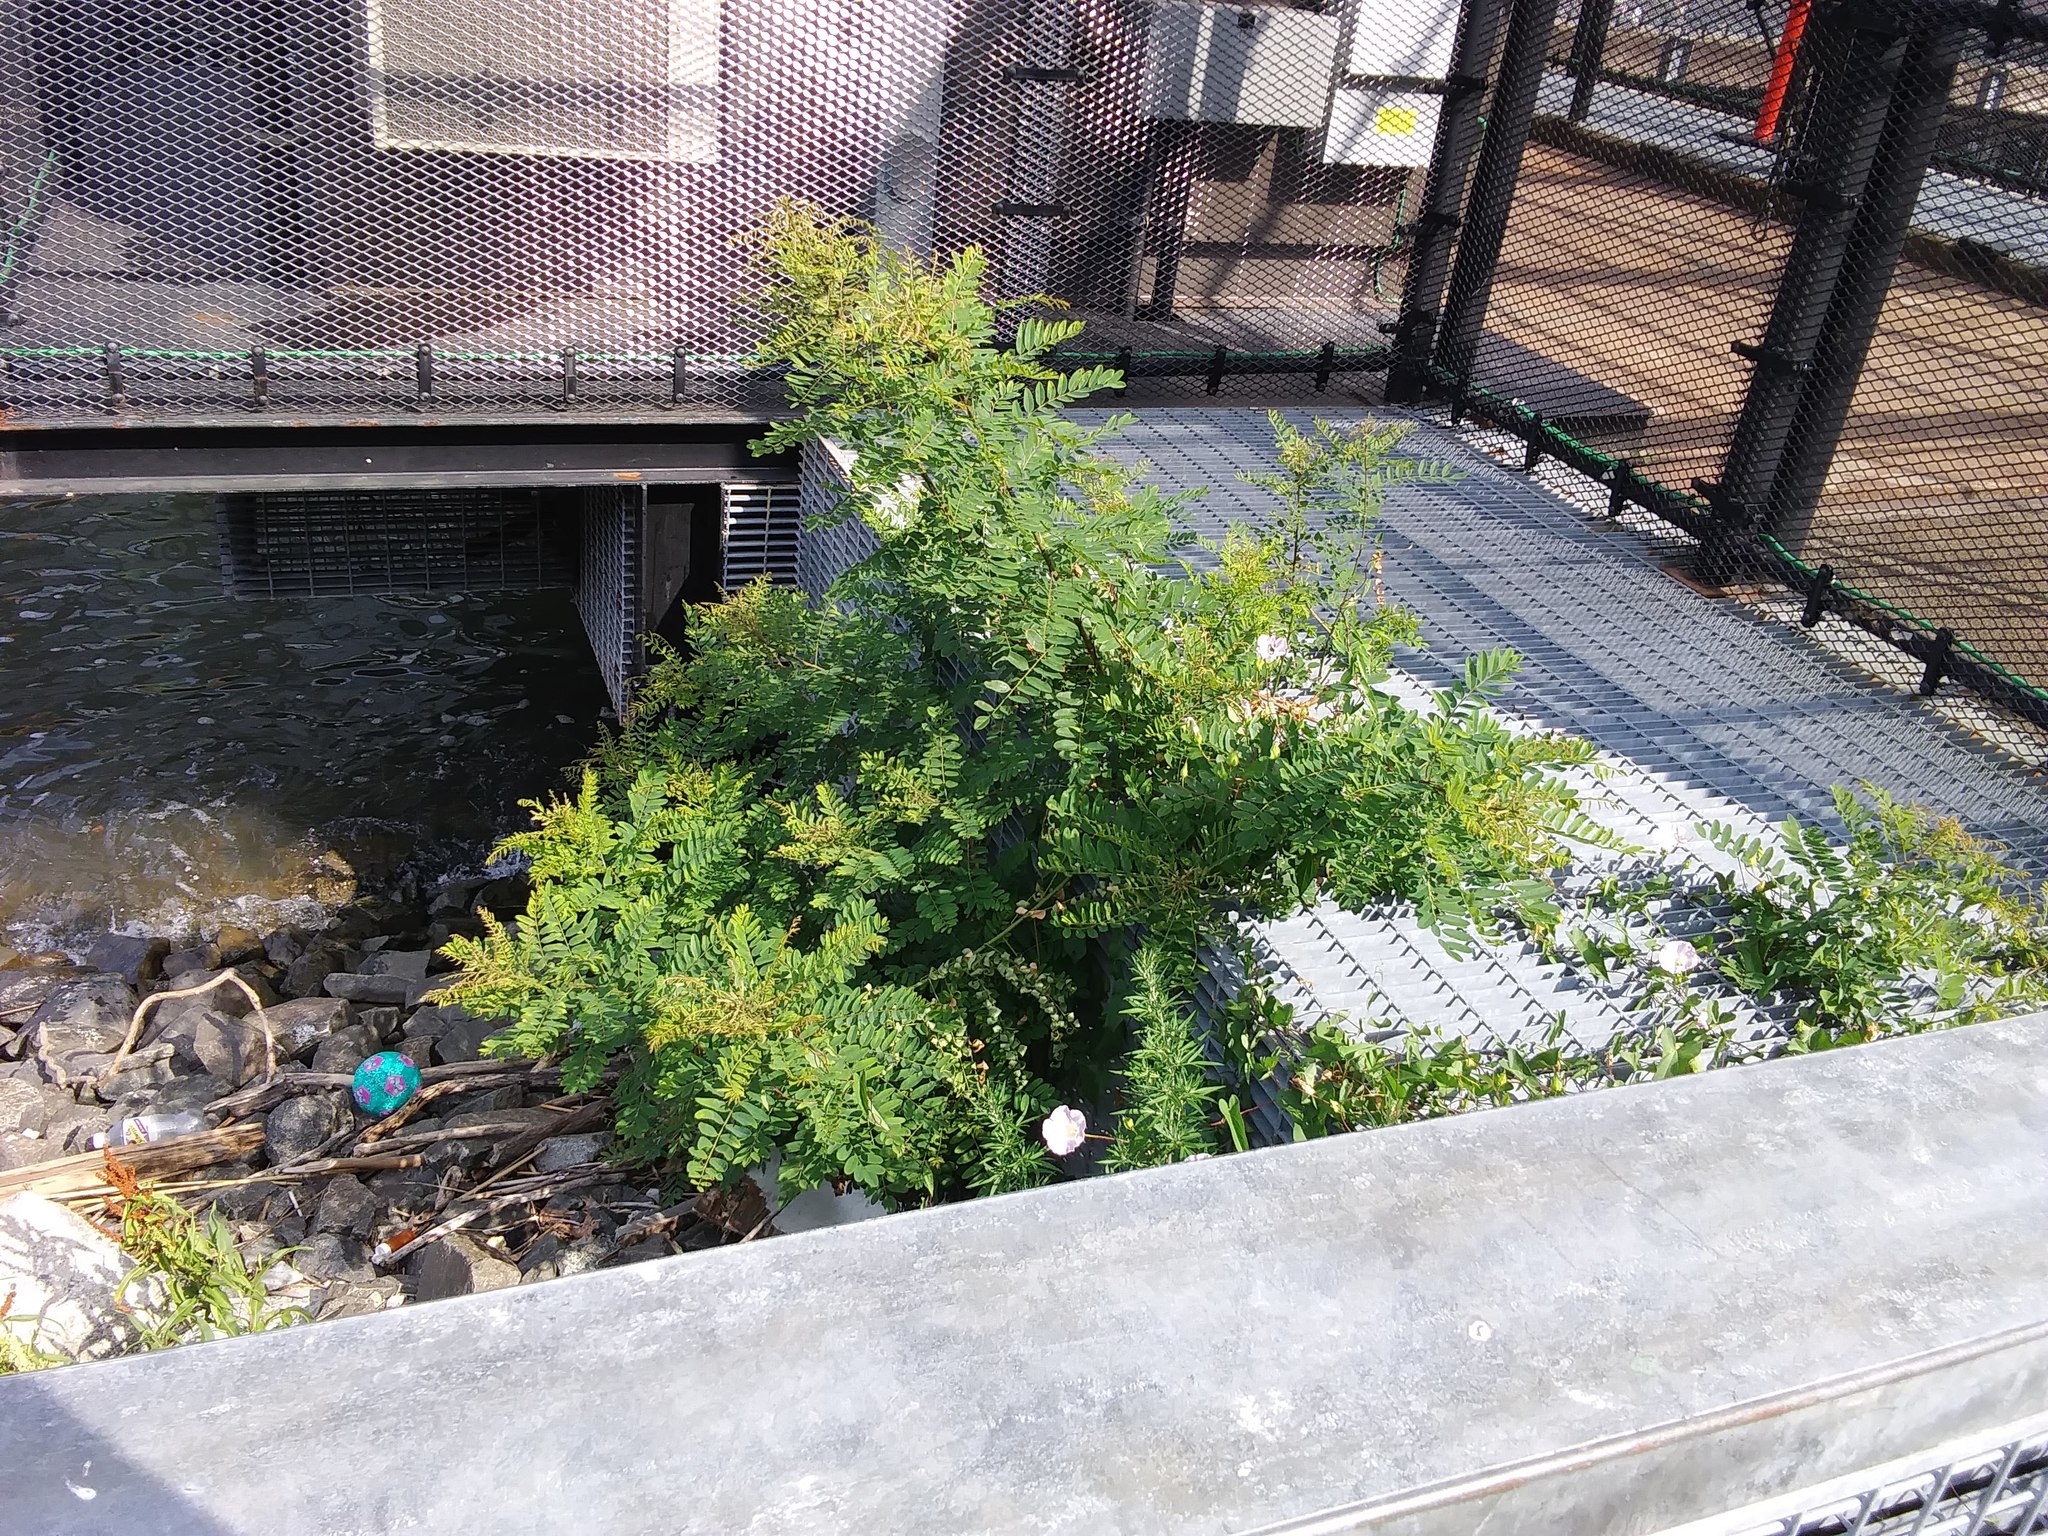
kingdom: Plantae
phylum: Tracheophyta
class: Magnoliopsida
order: Fabales
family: Fabaceae
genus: Amorpha
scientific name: Amorpha fruticosa
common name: False indigo
